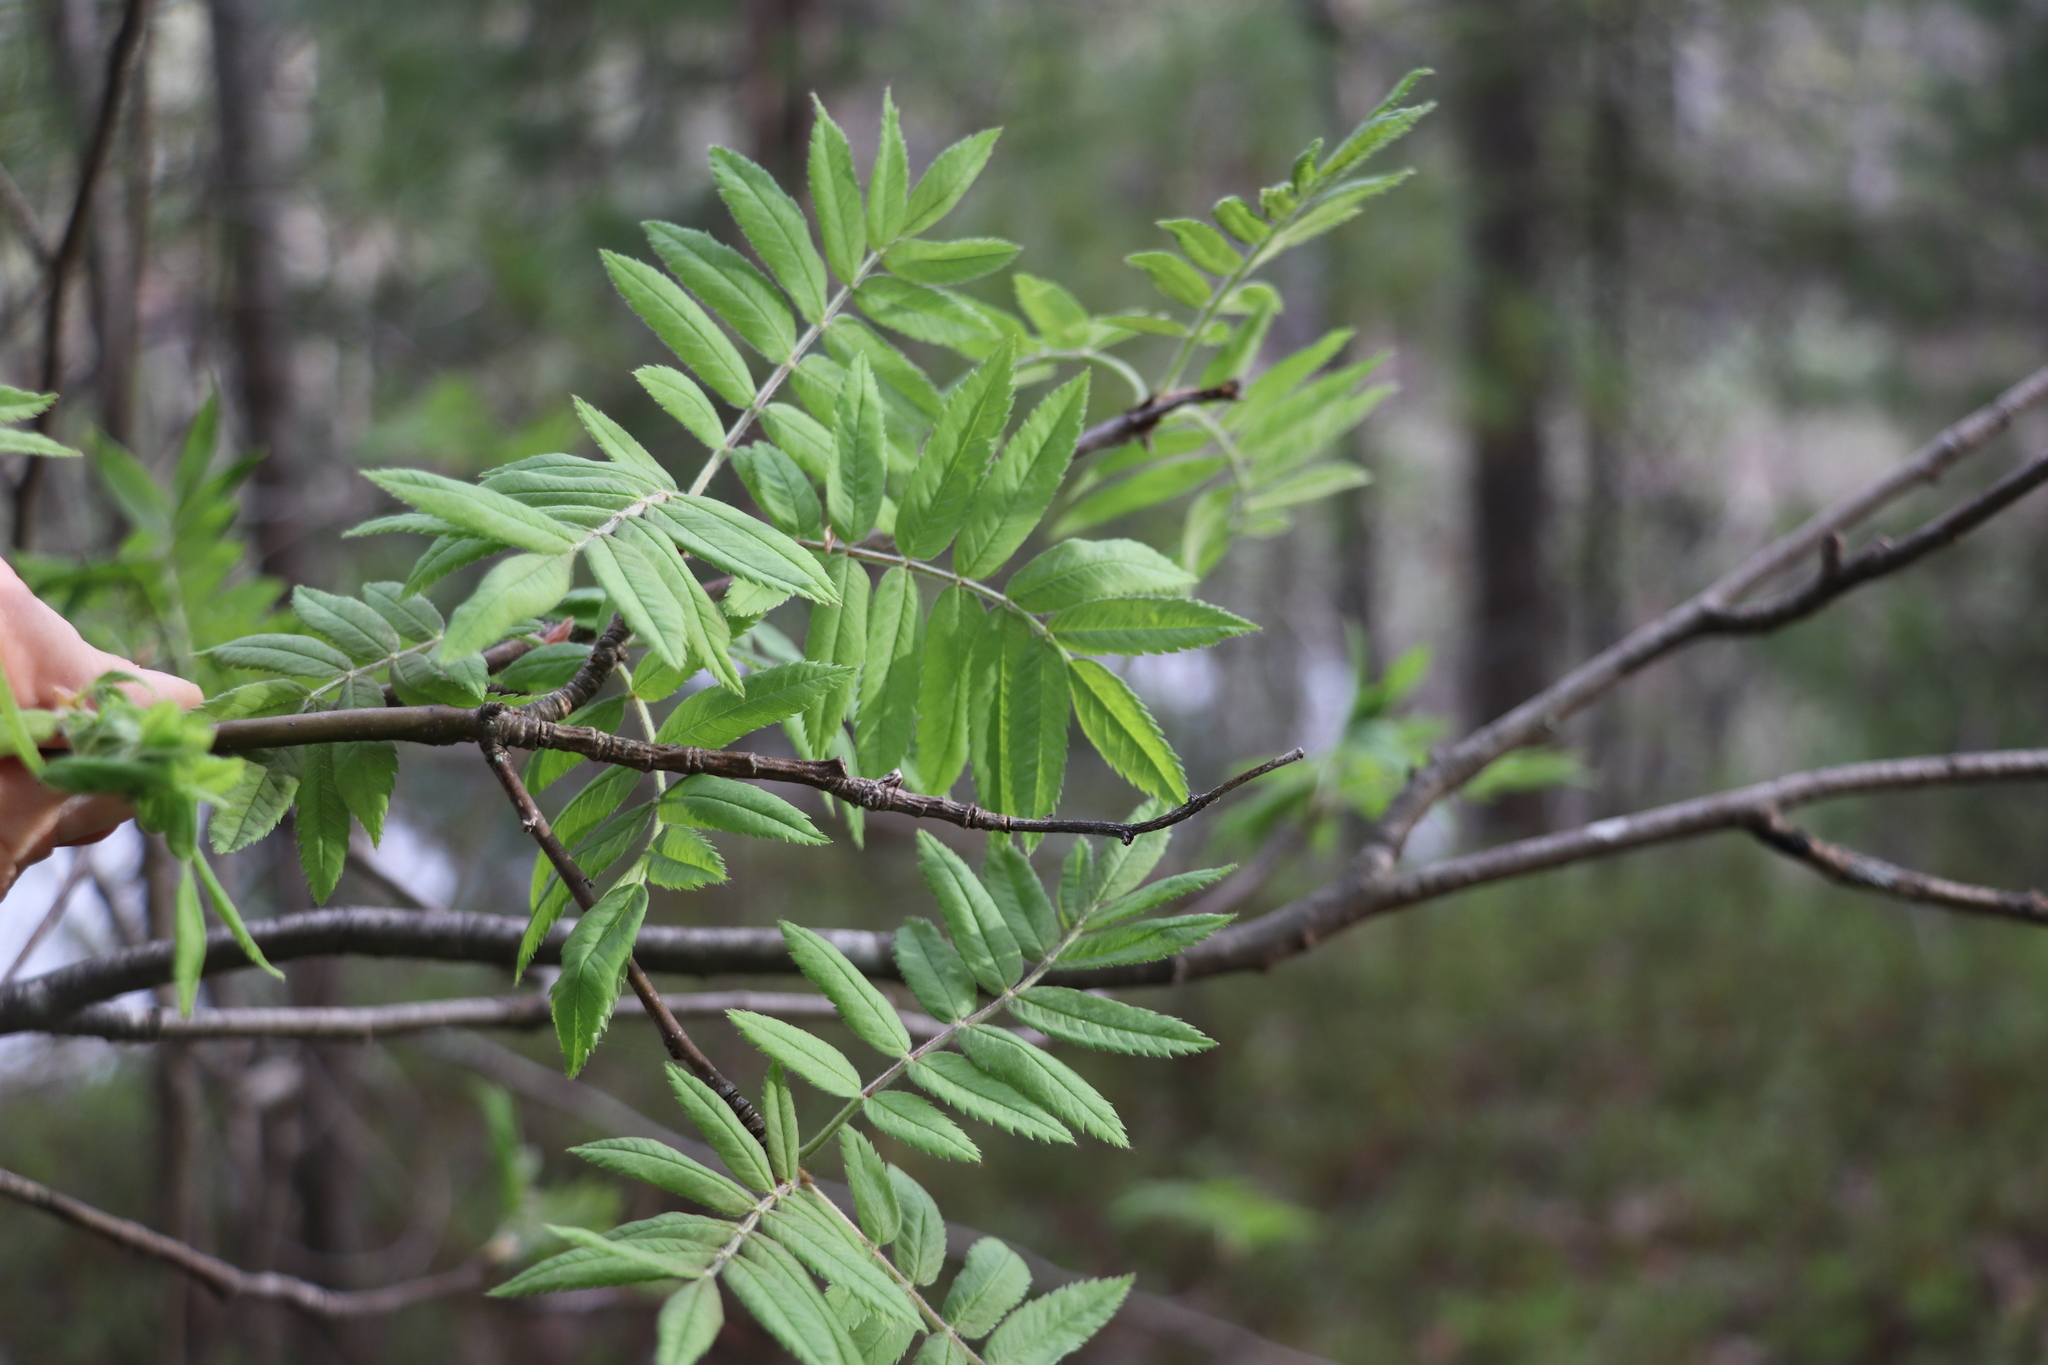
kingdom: Plantae
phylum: Tracheophyta
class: Magnoliopsida
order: Rosales
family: Rosaceae
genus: Sorbus
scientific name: Sorbus aucuparia
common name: Rowan
